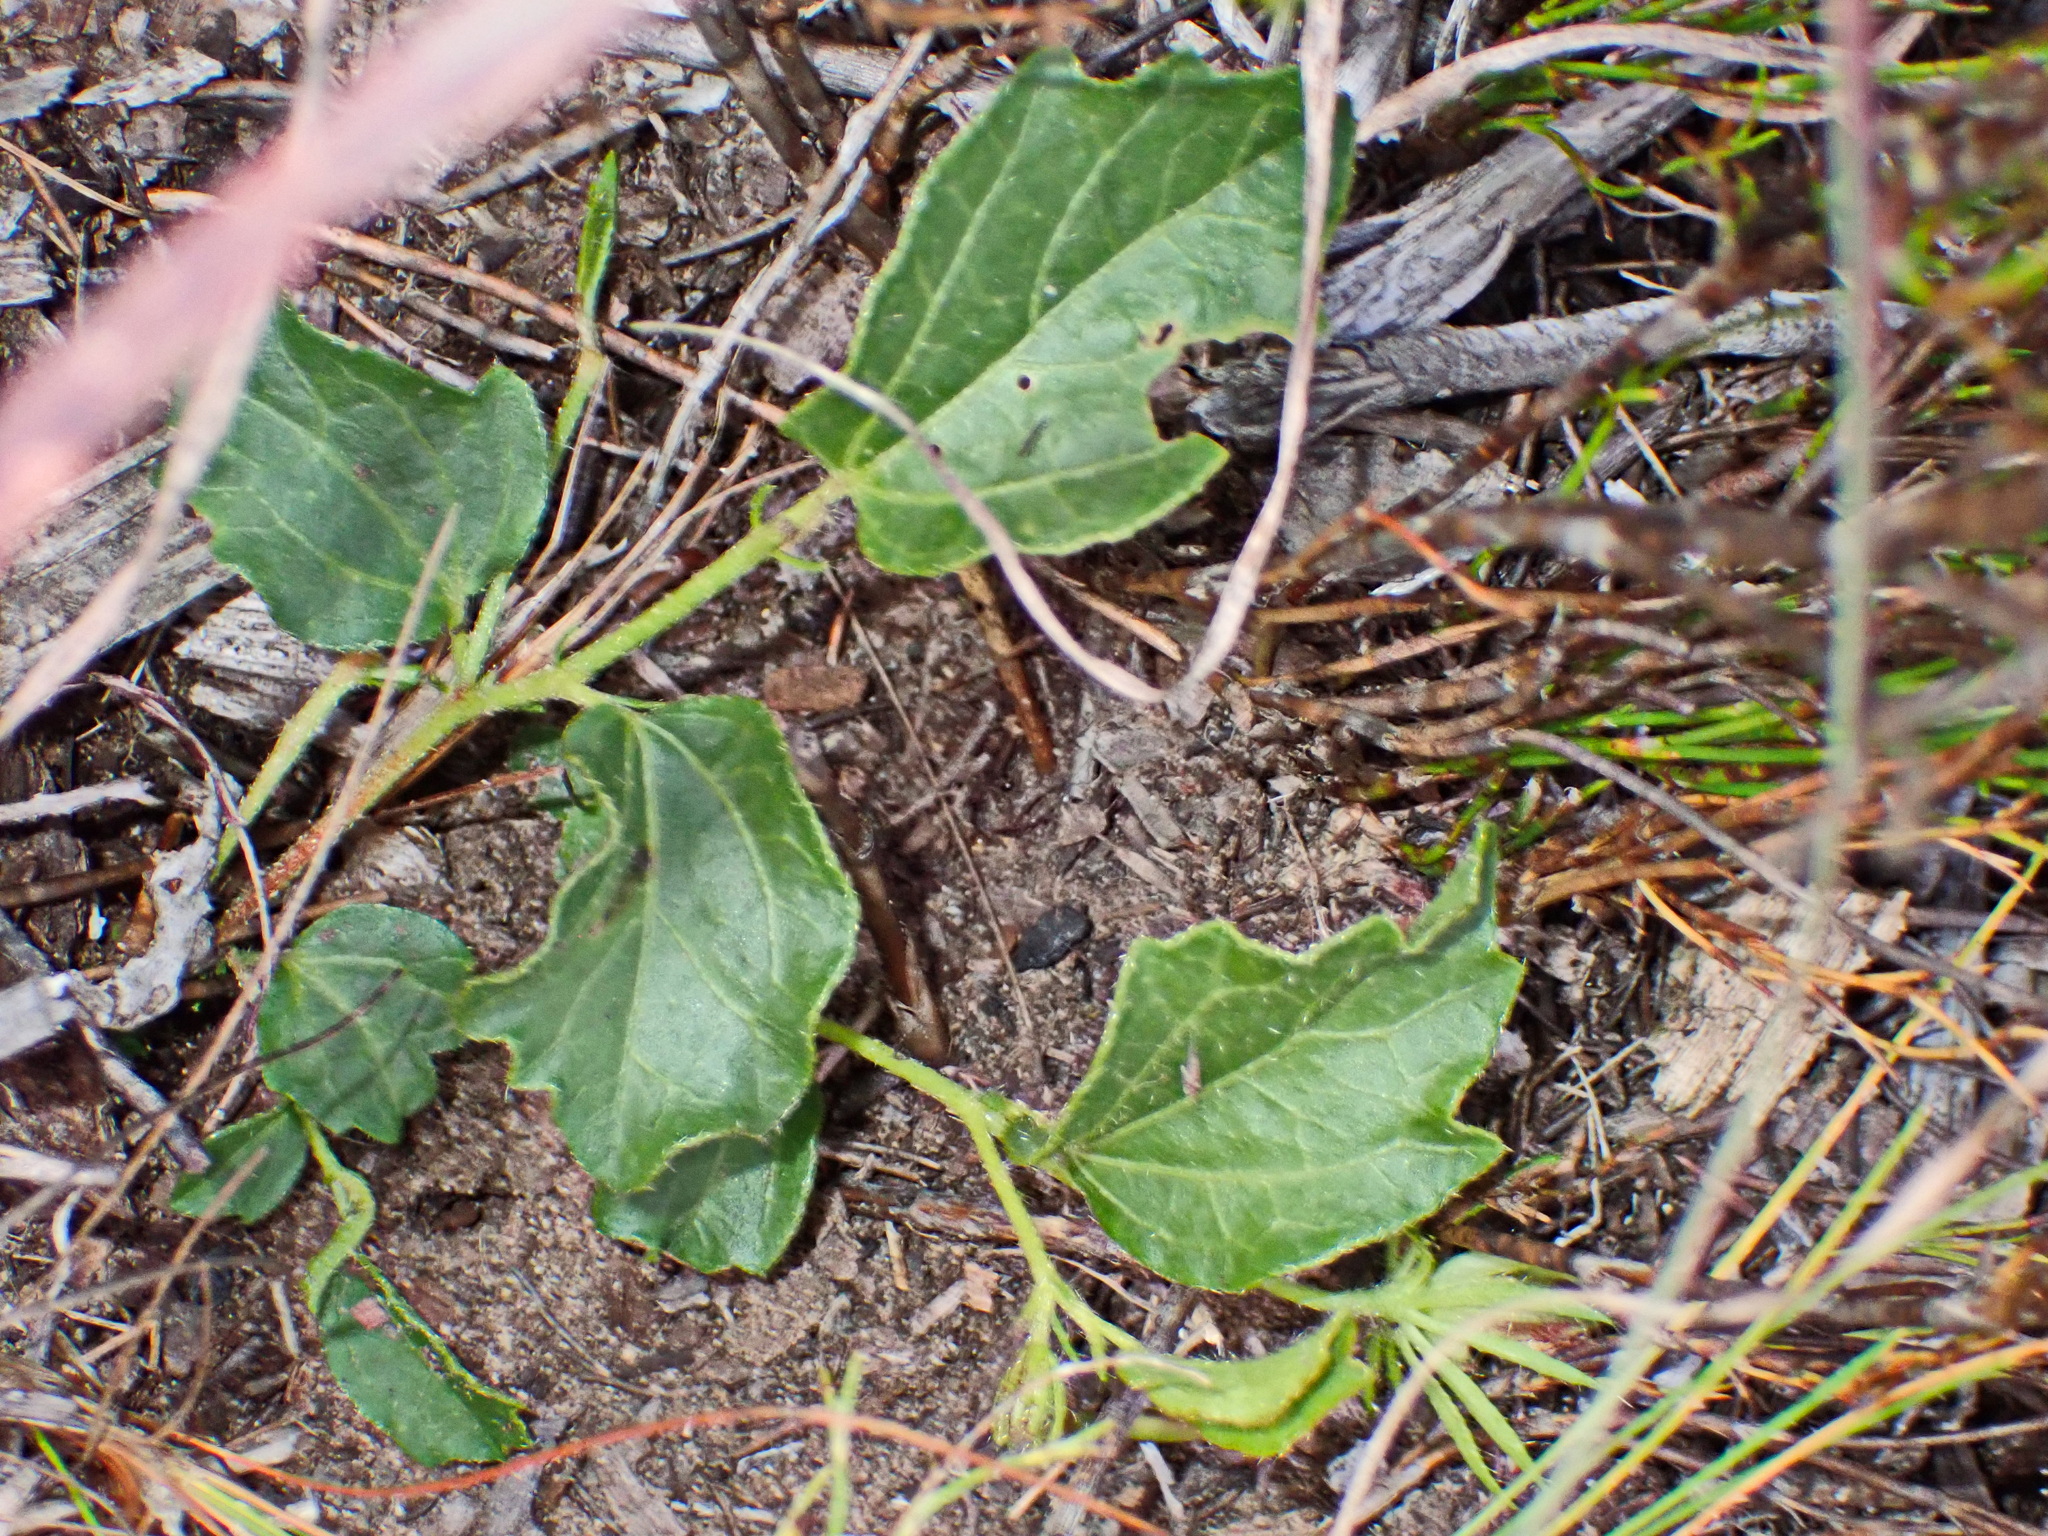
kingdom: Plantae
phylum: Tracheophyta
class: Magnoliopsida
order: Ranunculales
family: Ranunculaceae
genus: Knowltonia
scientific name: Knowltonia vesicatoria
